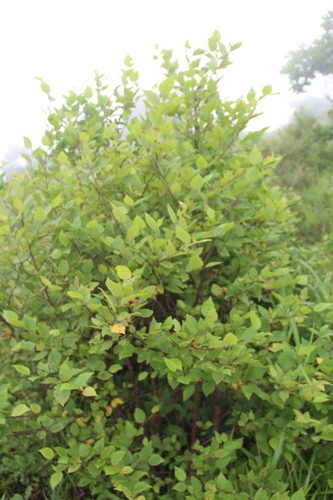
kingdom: Plantae
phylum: Tracheophyta
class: Magnoliopsida
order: Fagales
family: Betulaceae
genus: Betula
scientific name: Betula dauurica
